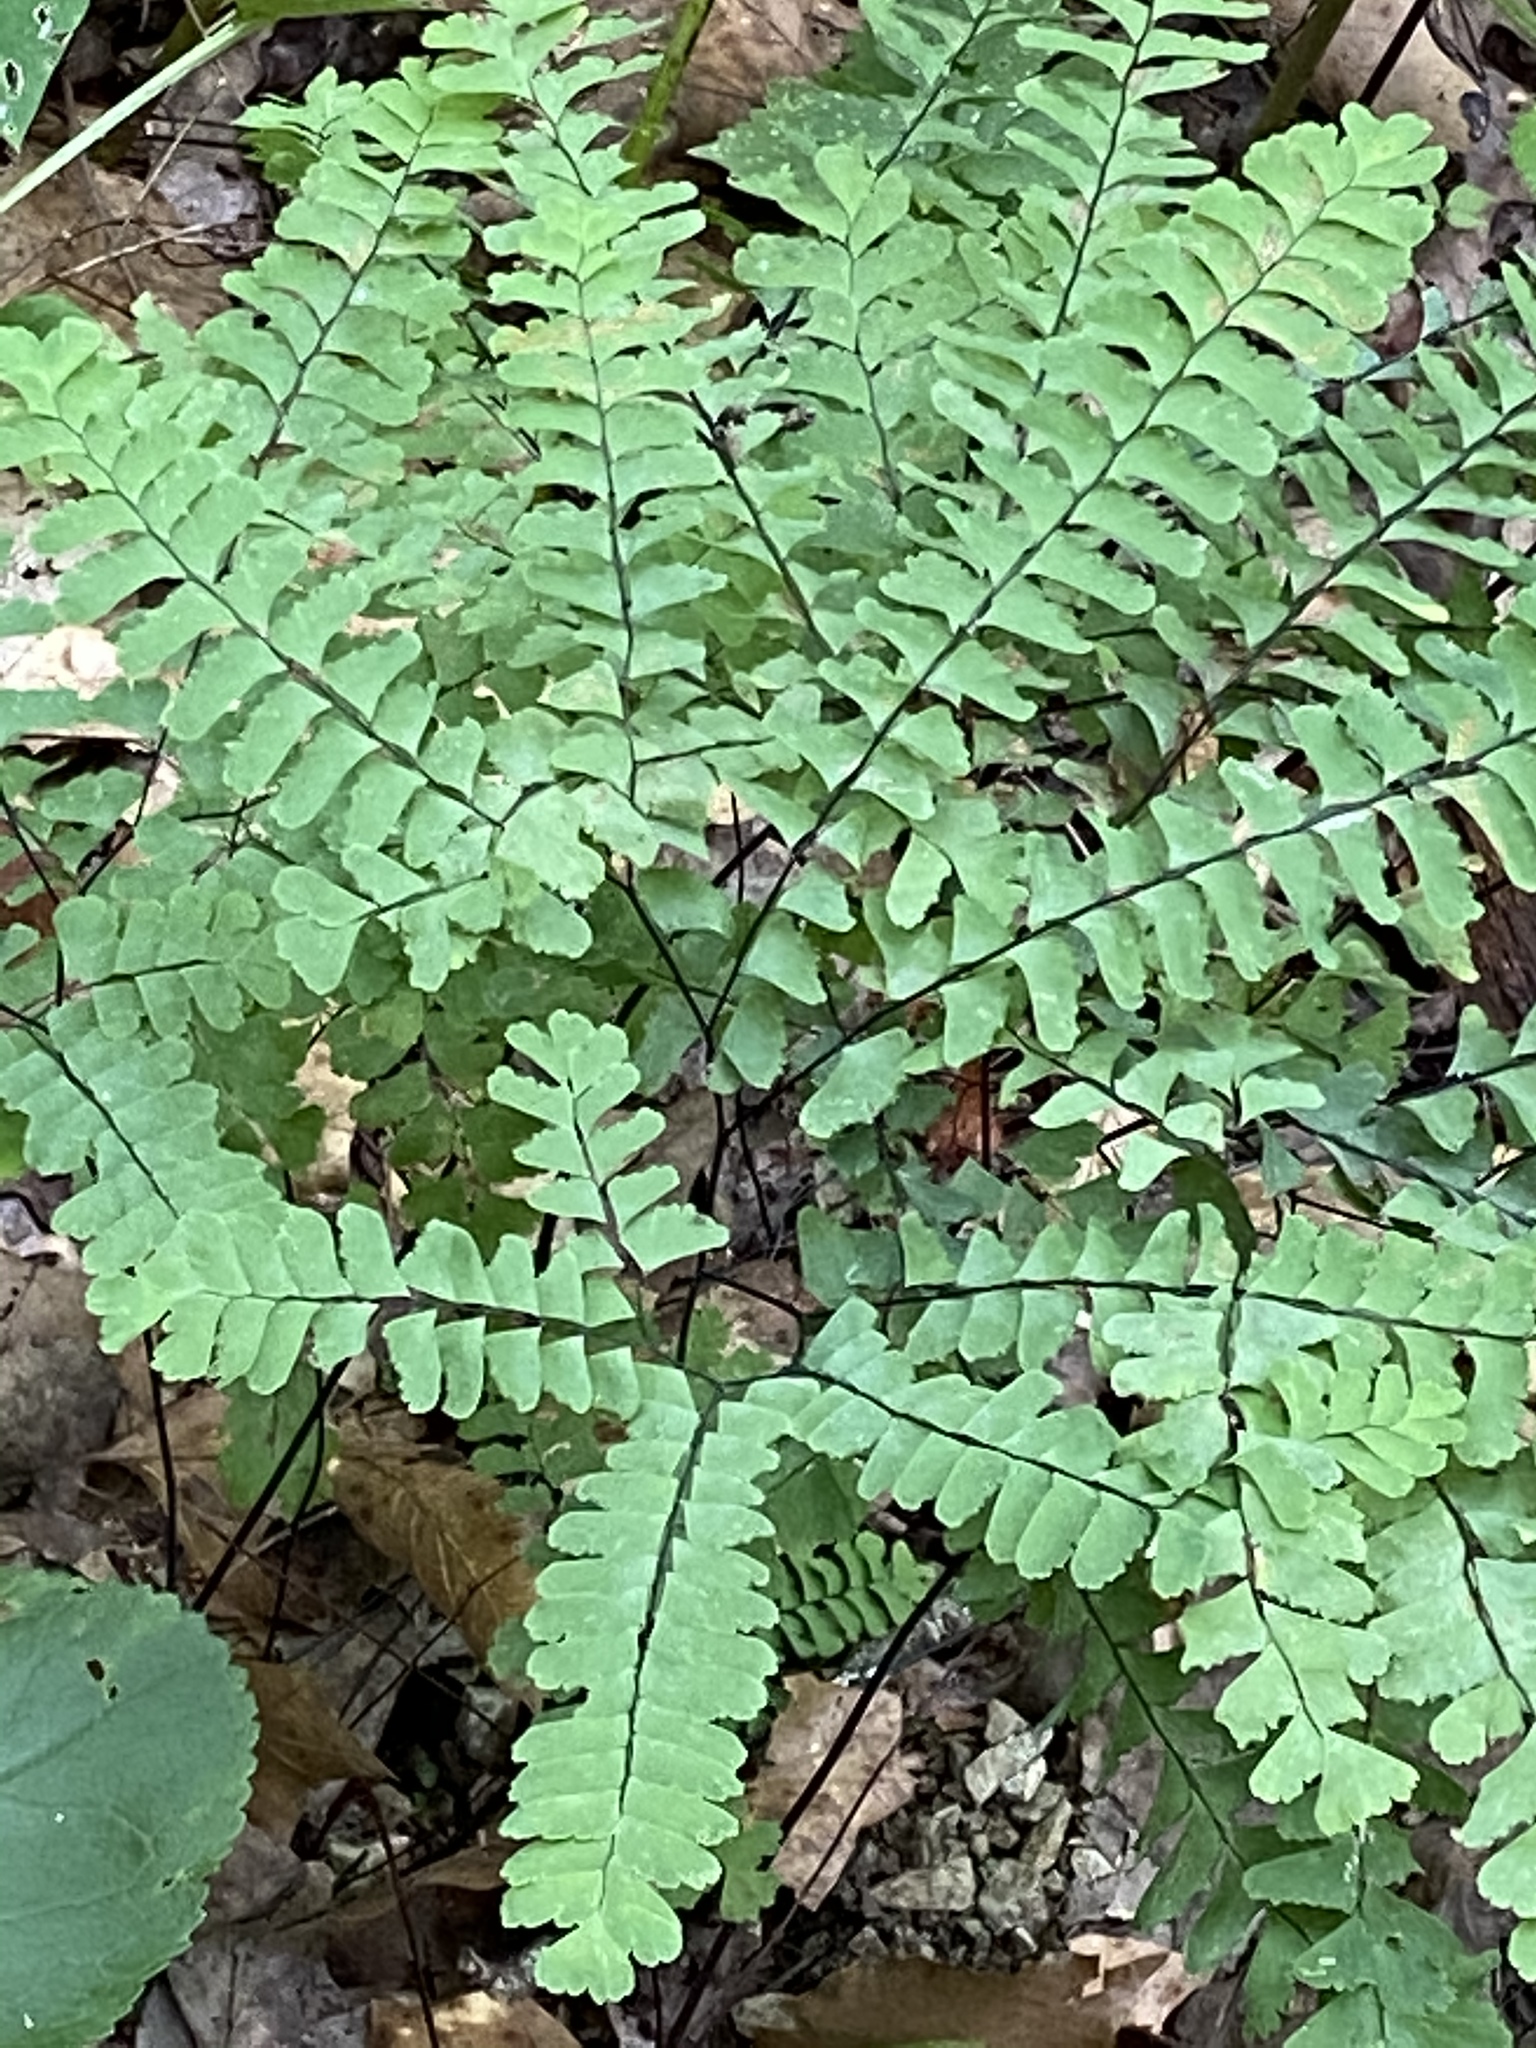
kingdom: Plantae
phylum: Tracheophyta
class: Polypodiopsida
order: Polypodiales
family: Pteridaceae
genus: Adiantum
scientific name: Adiantum pedatum
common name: Five-finger fern
